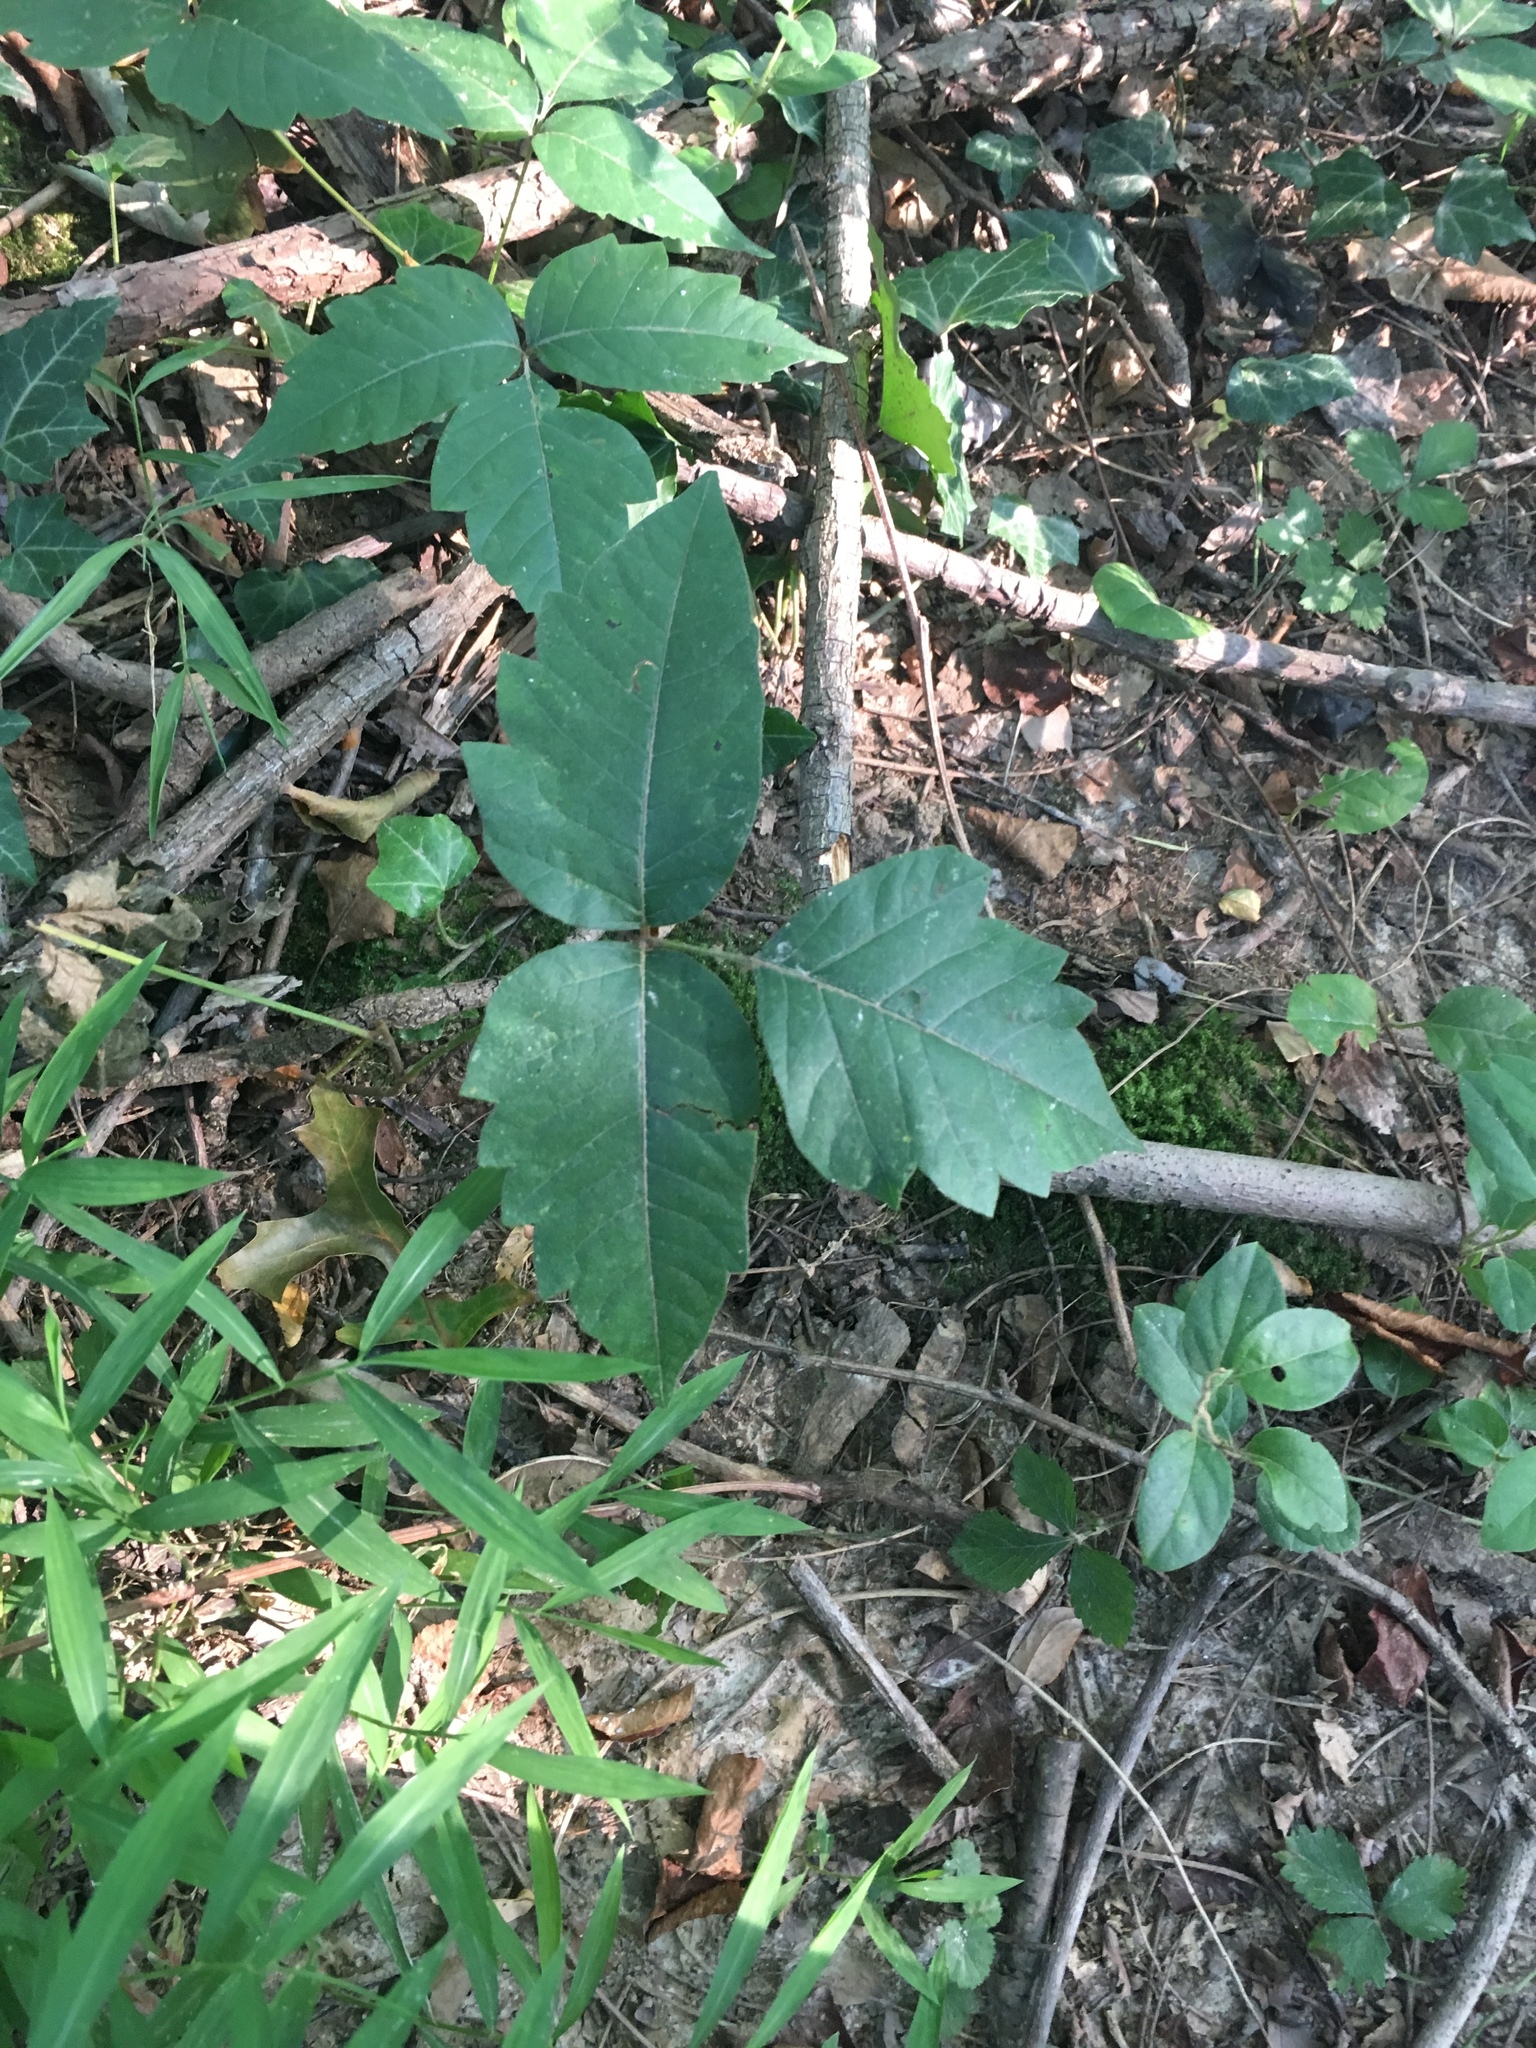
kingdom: Plantae
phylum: Tracheophyta
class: Magnoliopsida
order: Sapindales
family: Anacardiaceae
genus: Toxicodendron
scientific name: Toxicodendron radicans
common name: Poison ivy
